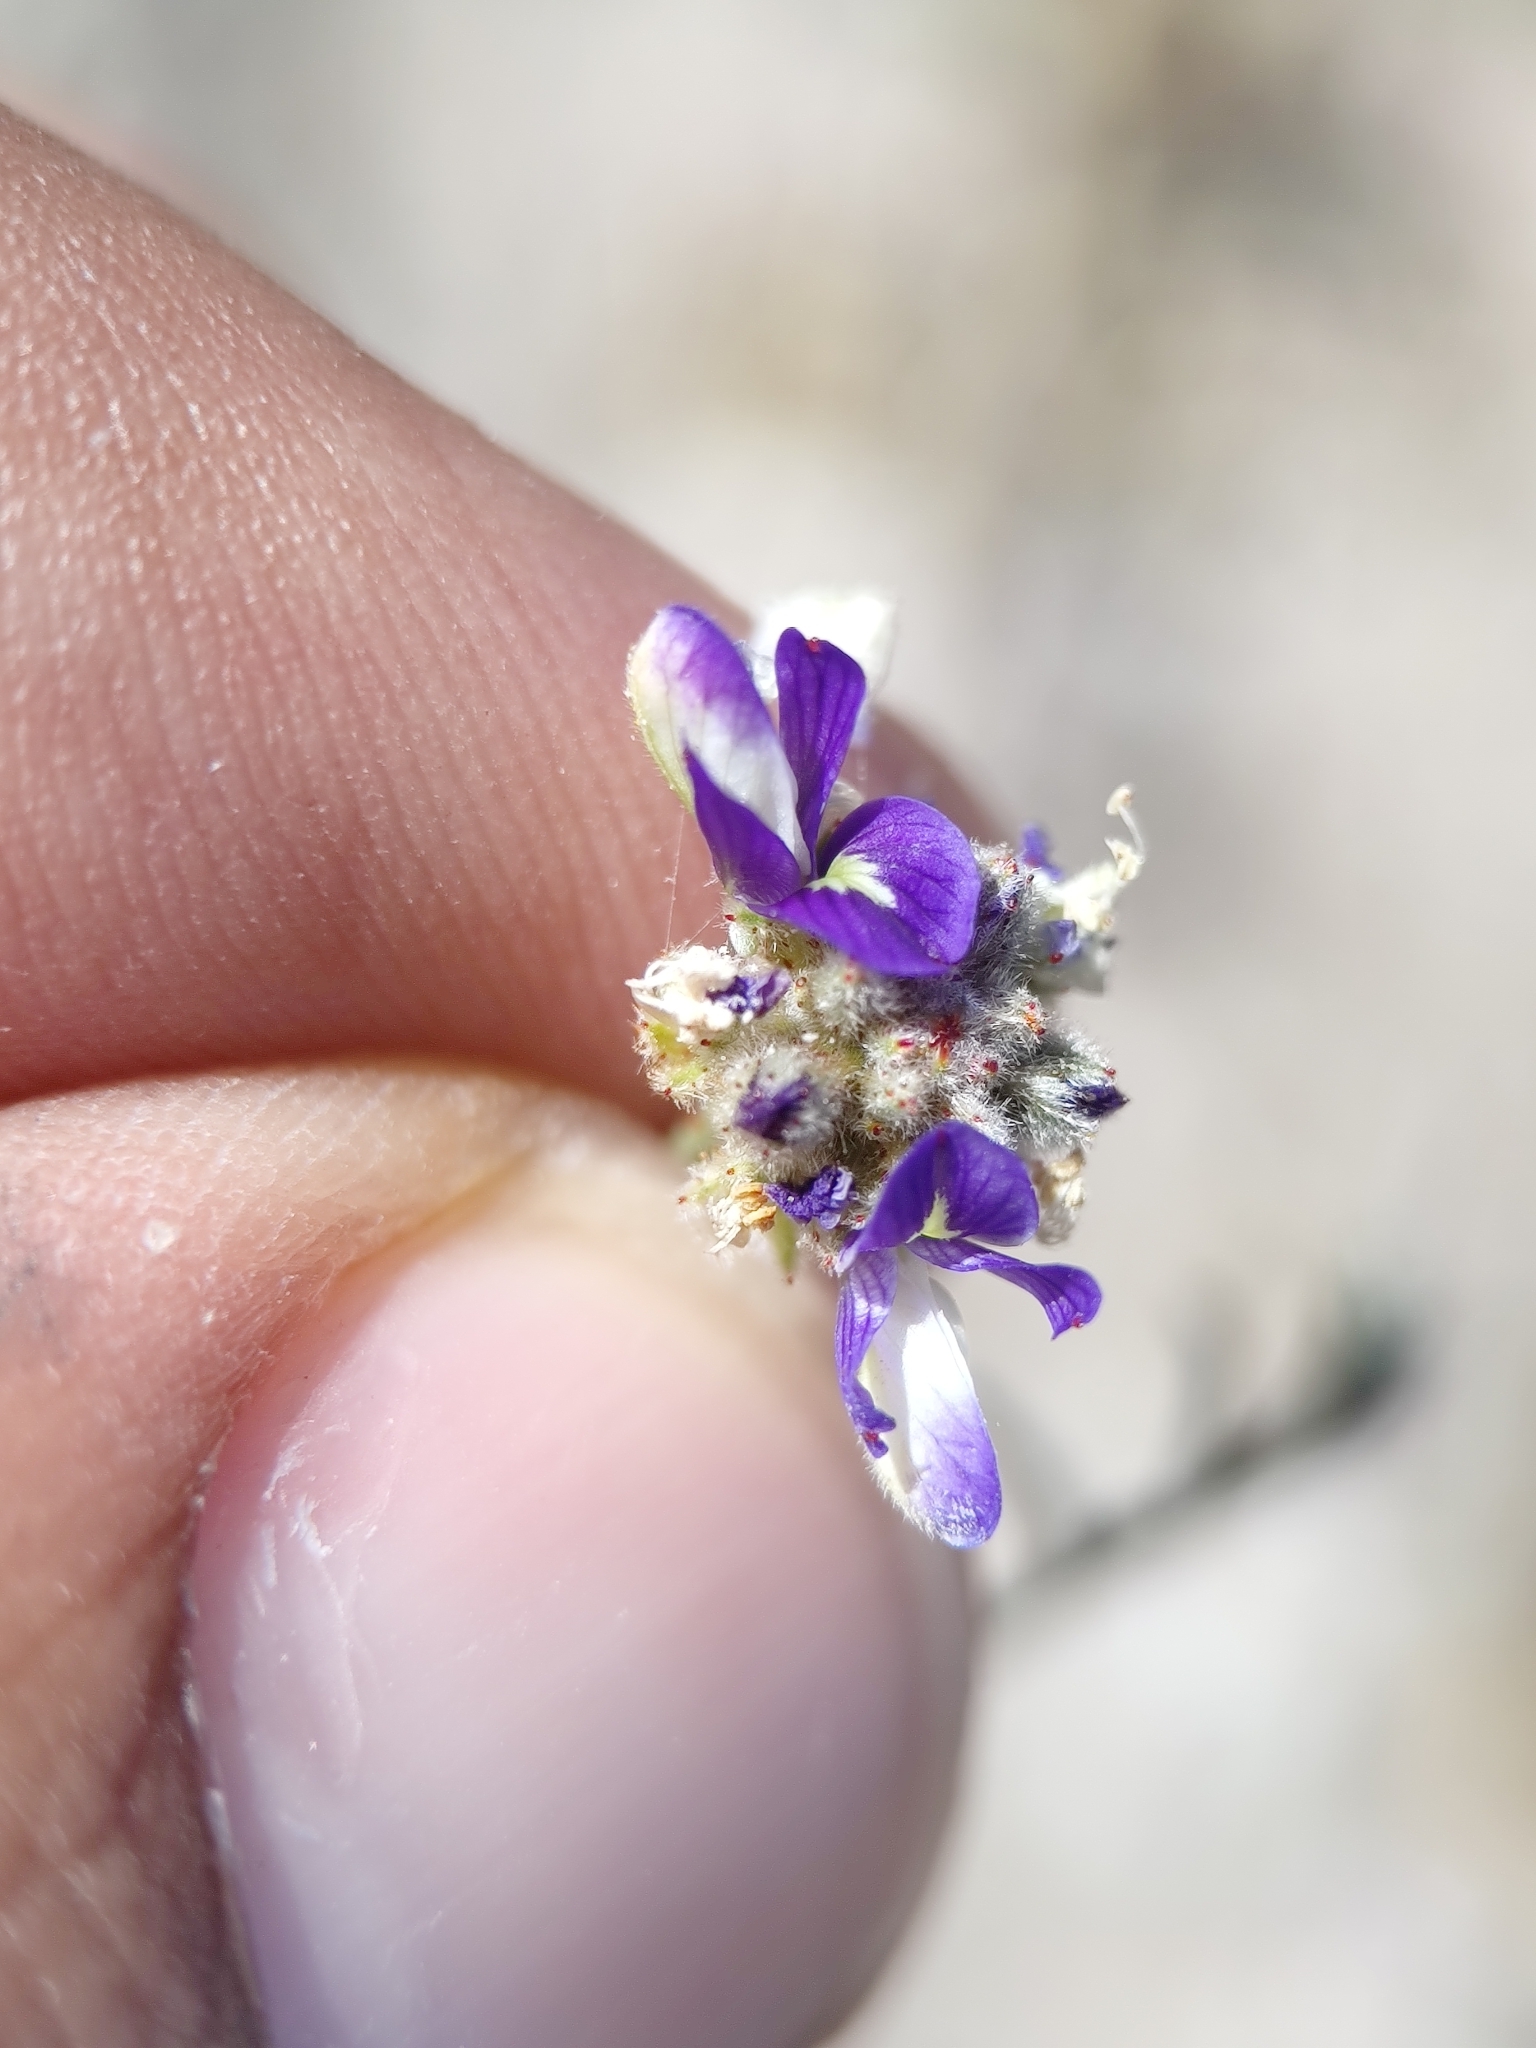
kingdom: Plantae
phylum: Tracheophyta
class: Magnoliopsida
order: Fabales
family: Fabaceae
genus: Psorothamnus
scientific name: Psorothamnus emoryi
